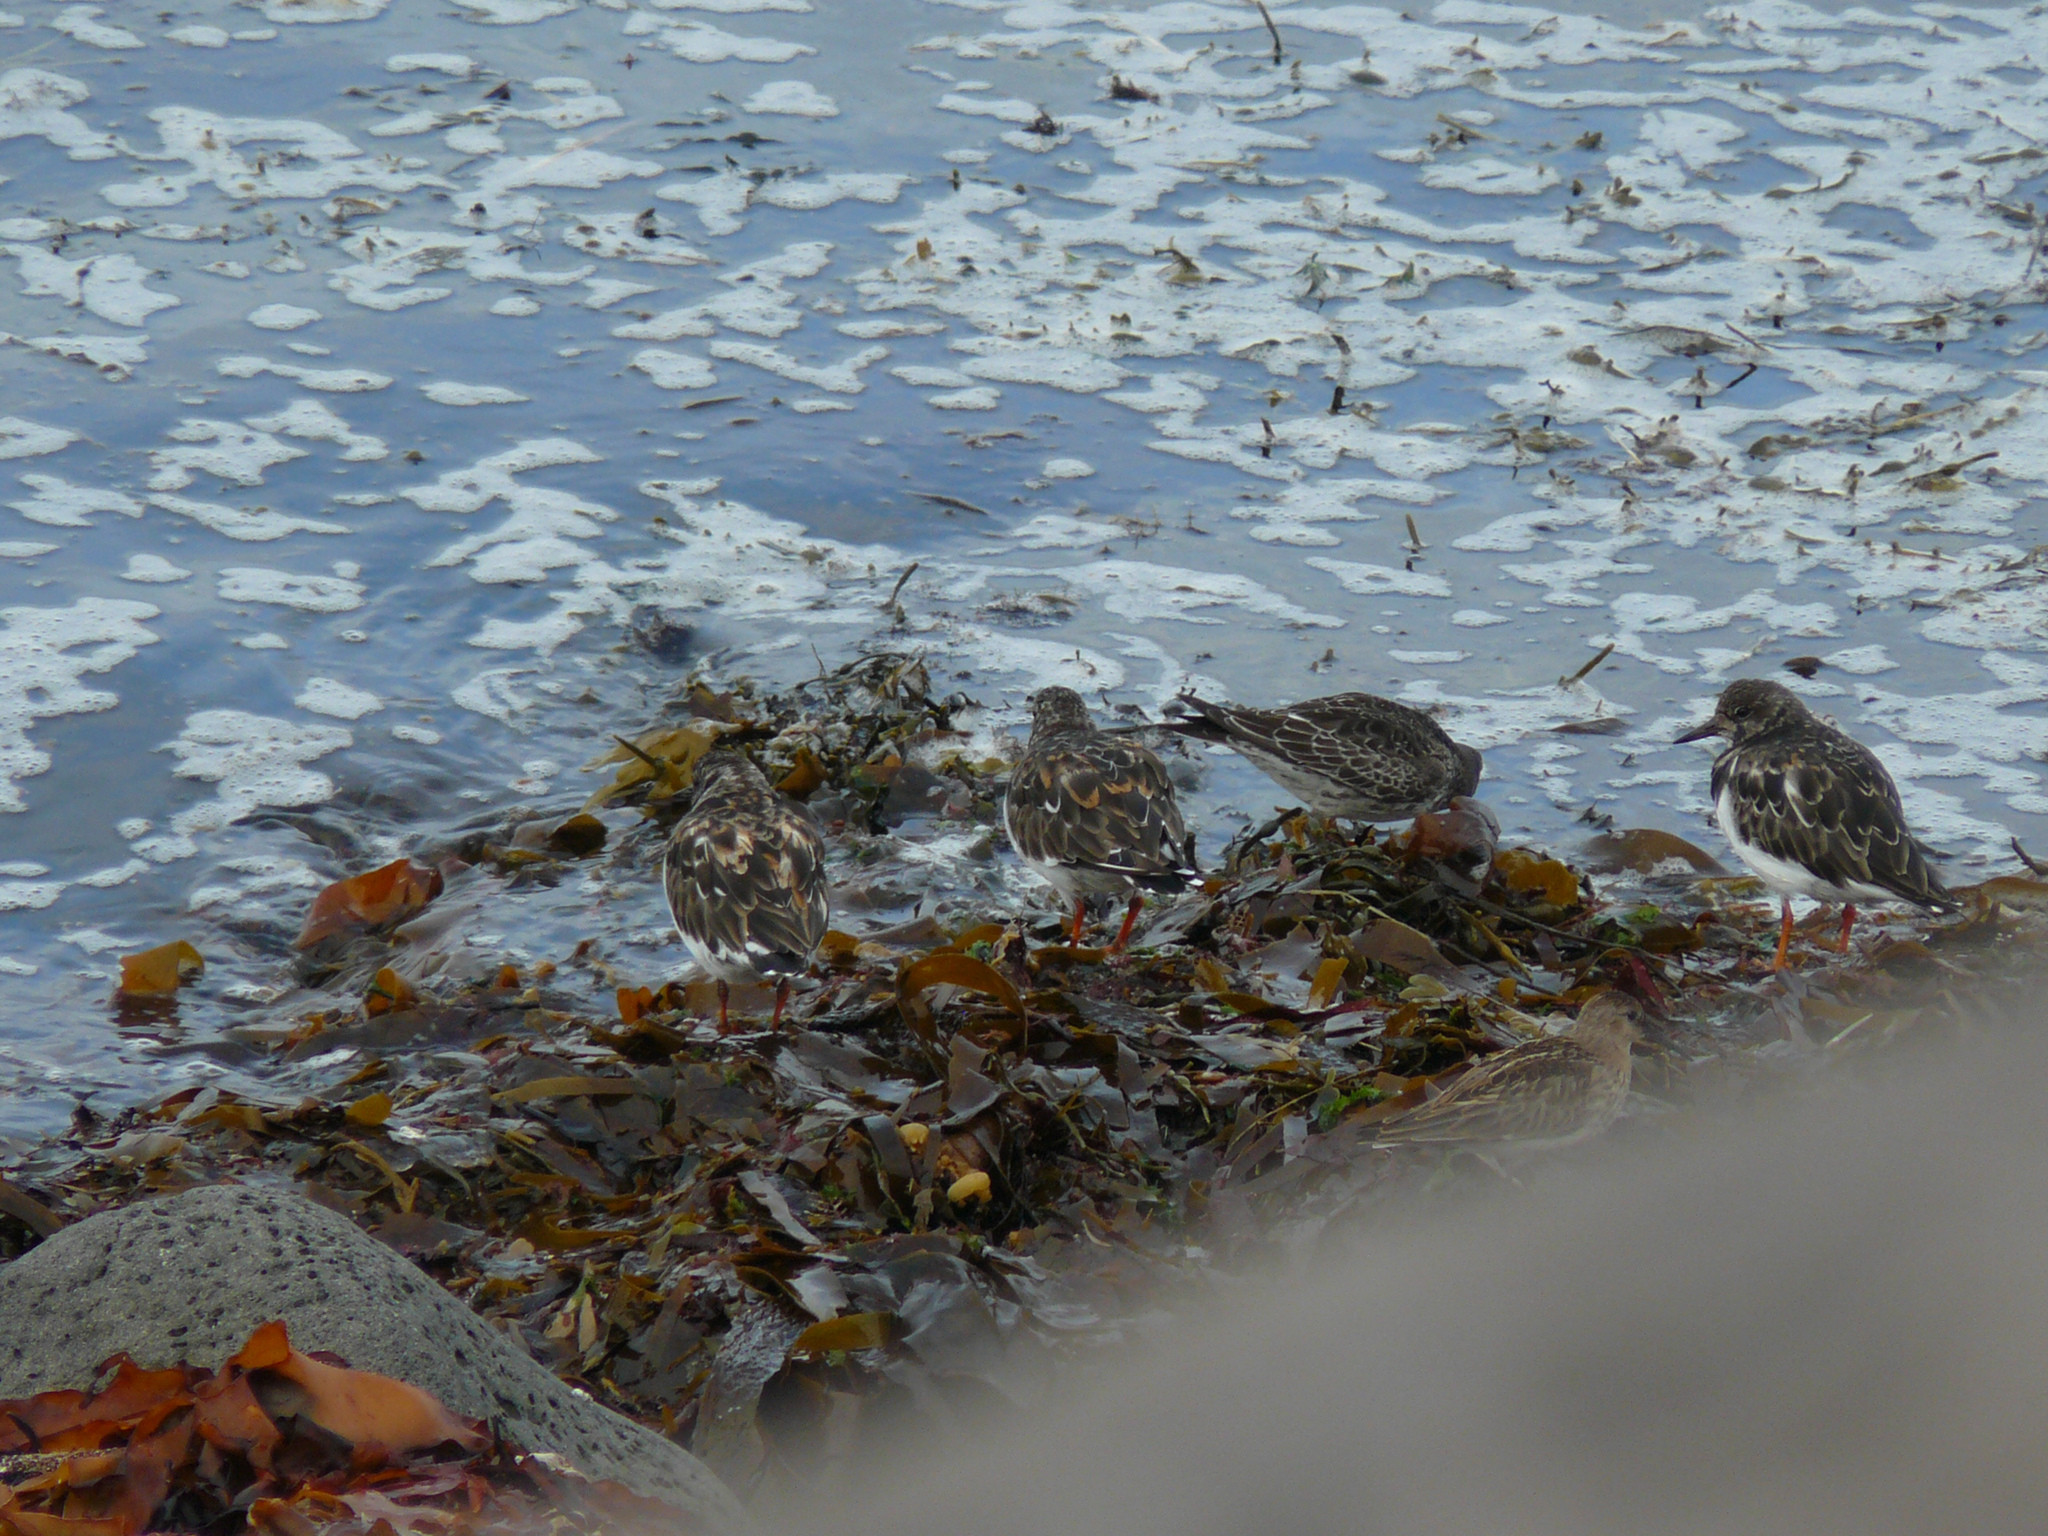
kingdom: Animalia
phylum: Chordata
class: Aves
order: Charadriiformes
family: Scolopacidae
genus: Arenaria
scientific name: Arenaria interpres
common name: Ruddy turnstone
